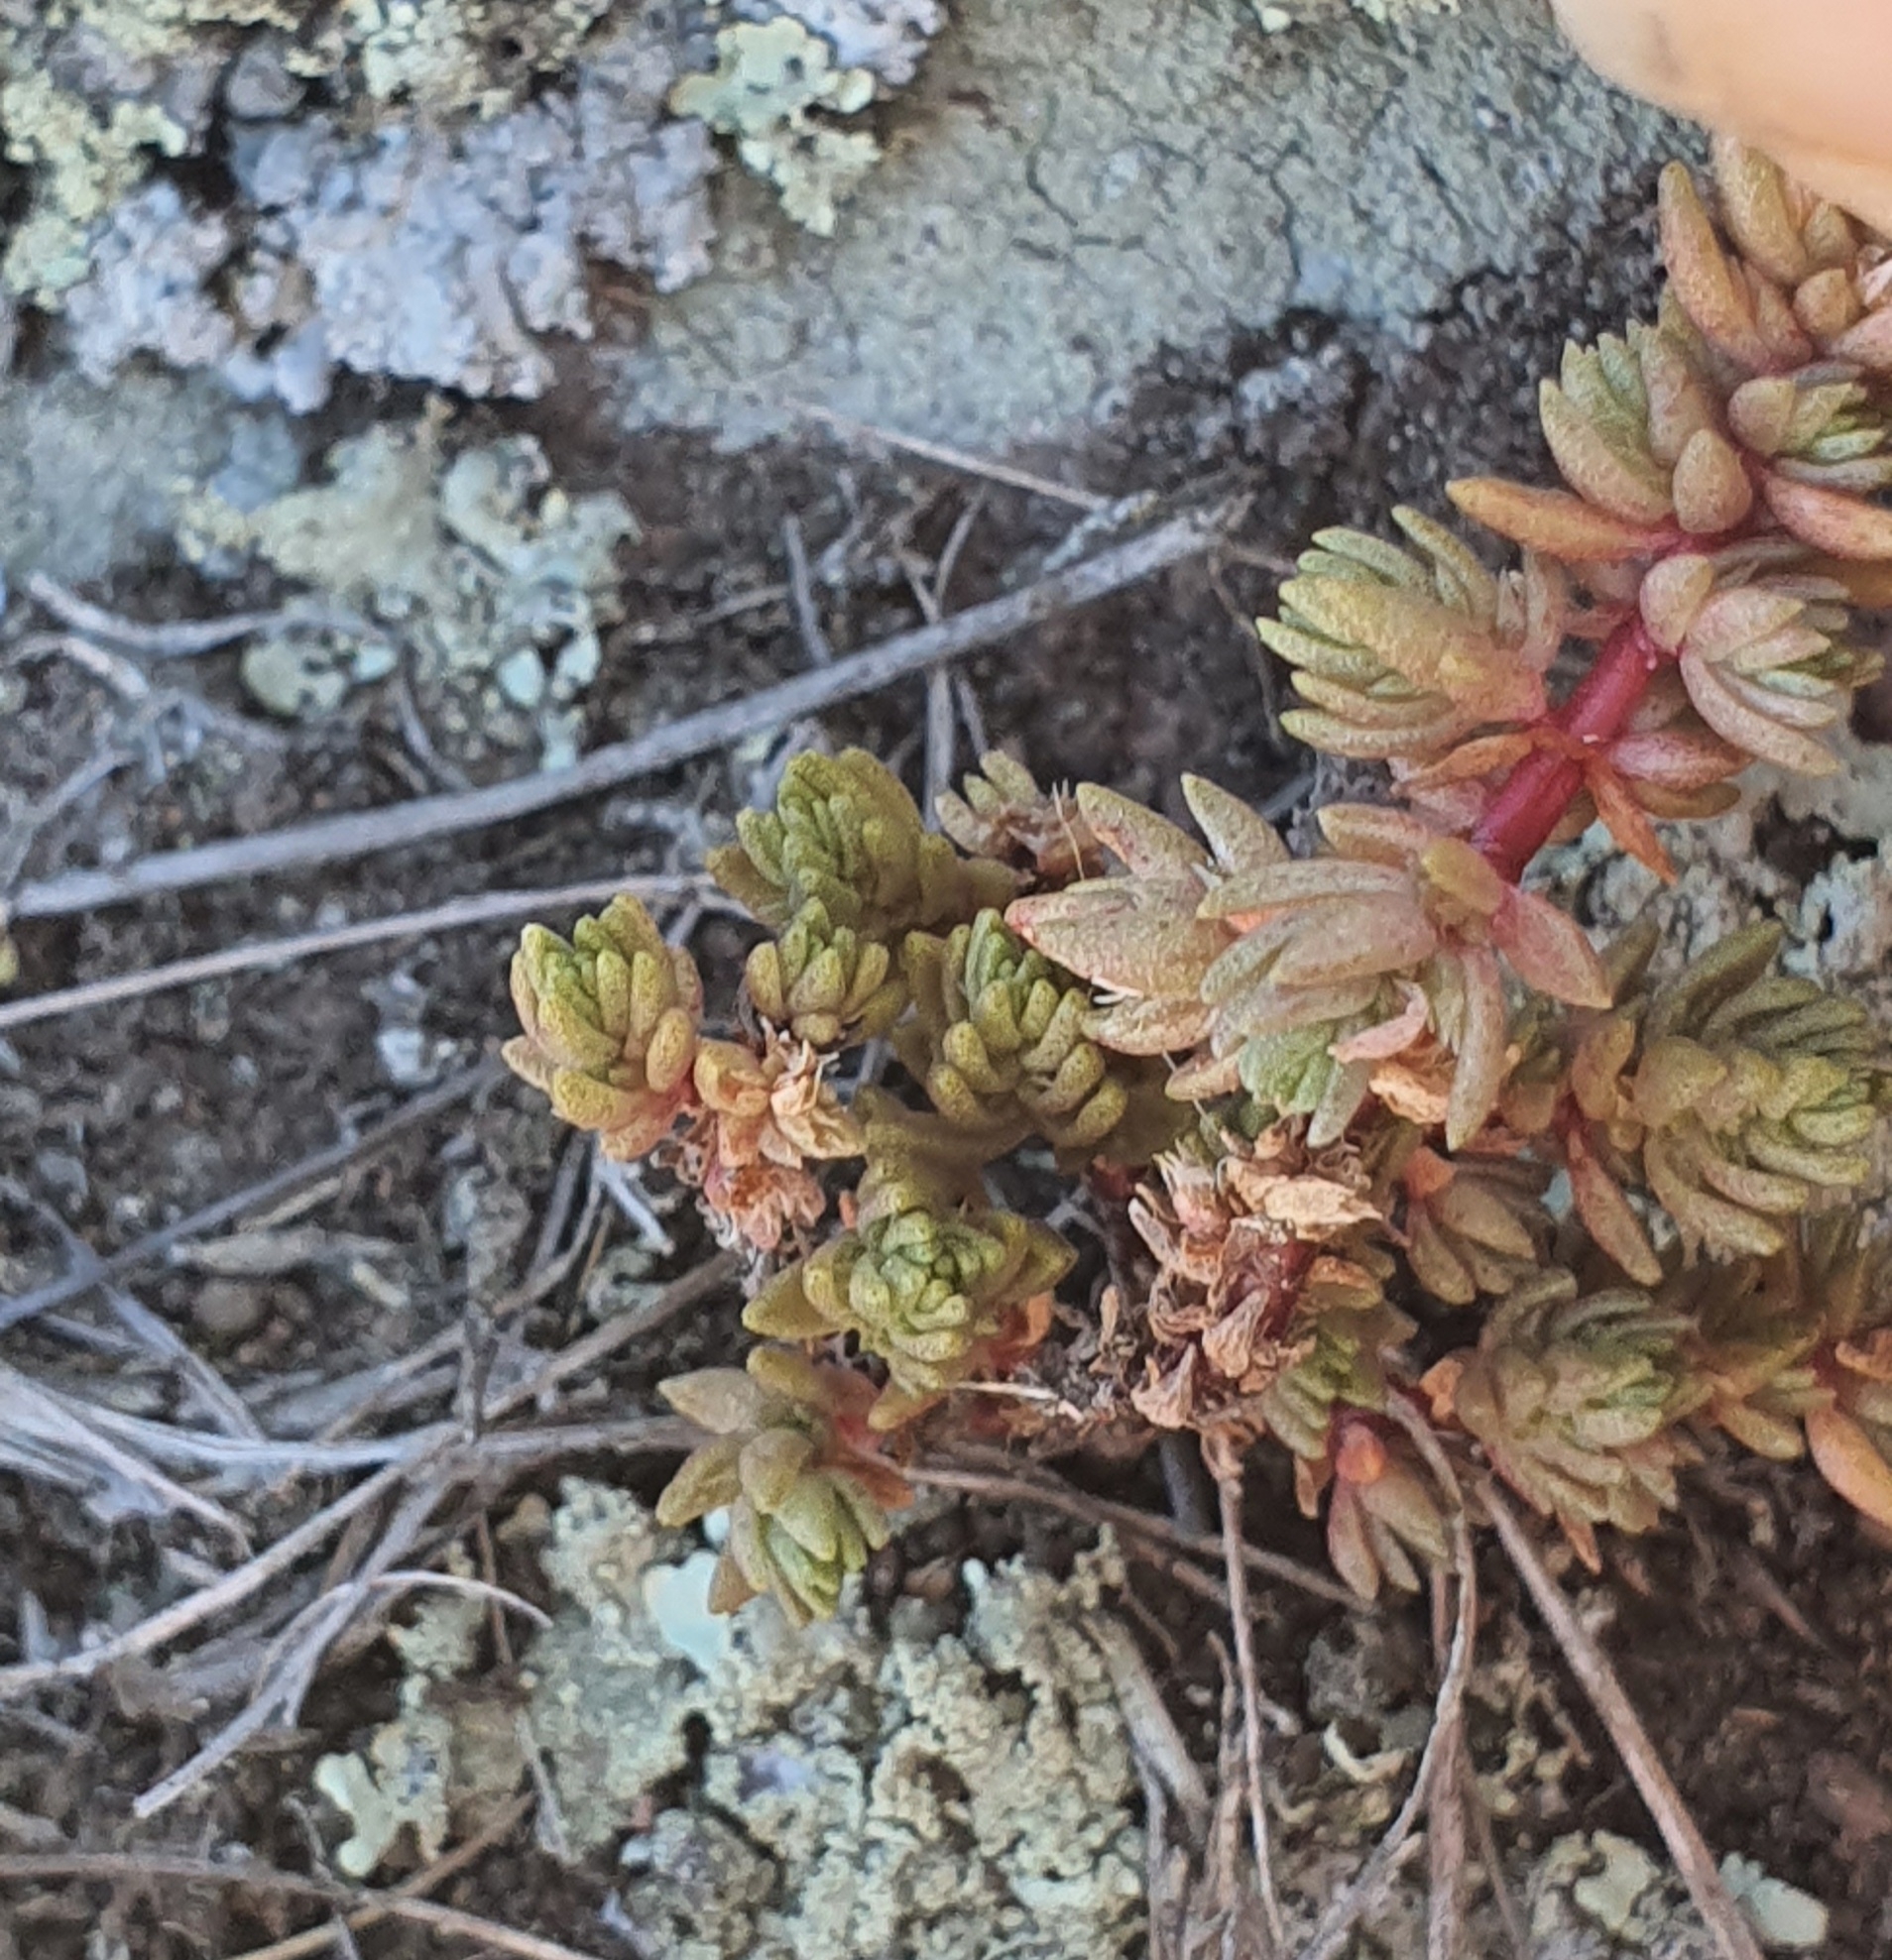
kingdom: Plantae
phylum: Tracheophyta
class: Magnoliopsida
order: Saxifragales
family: Crassulaceae
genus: Crassula
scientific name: Crassula colligata
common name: Pygmyweed
